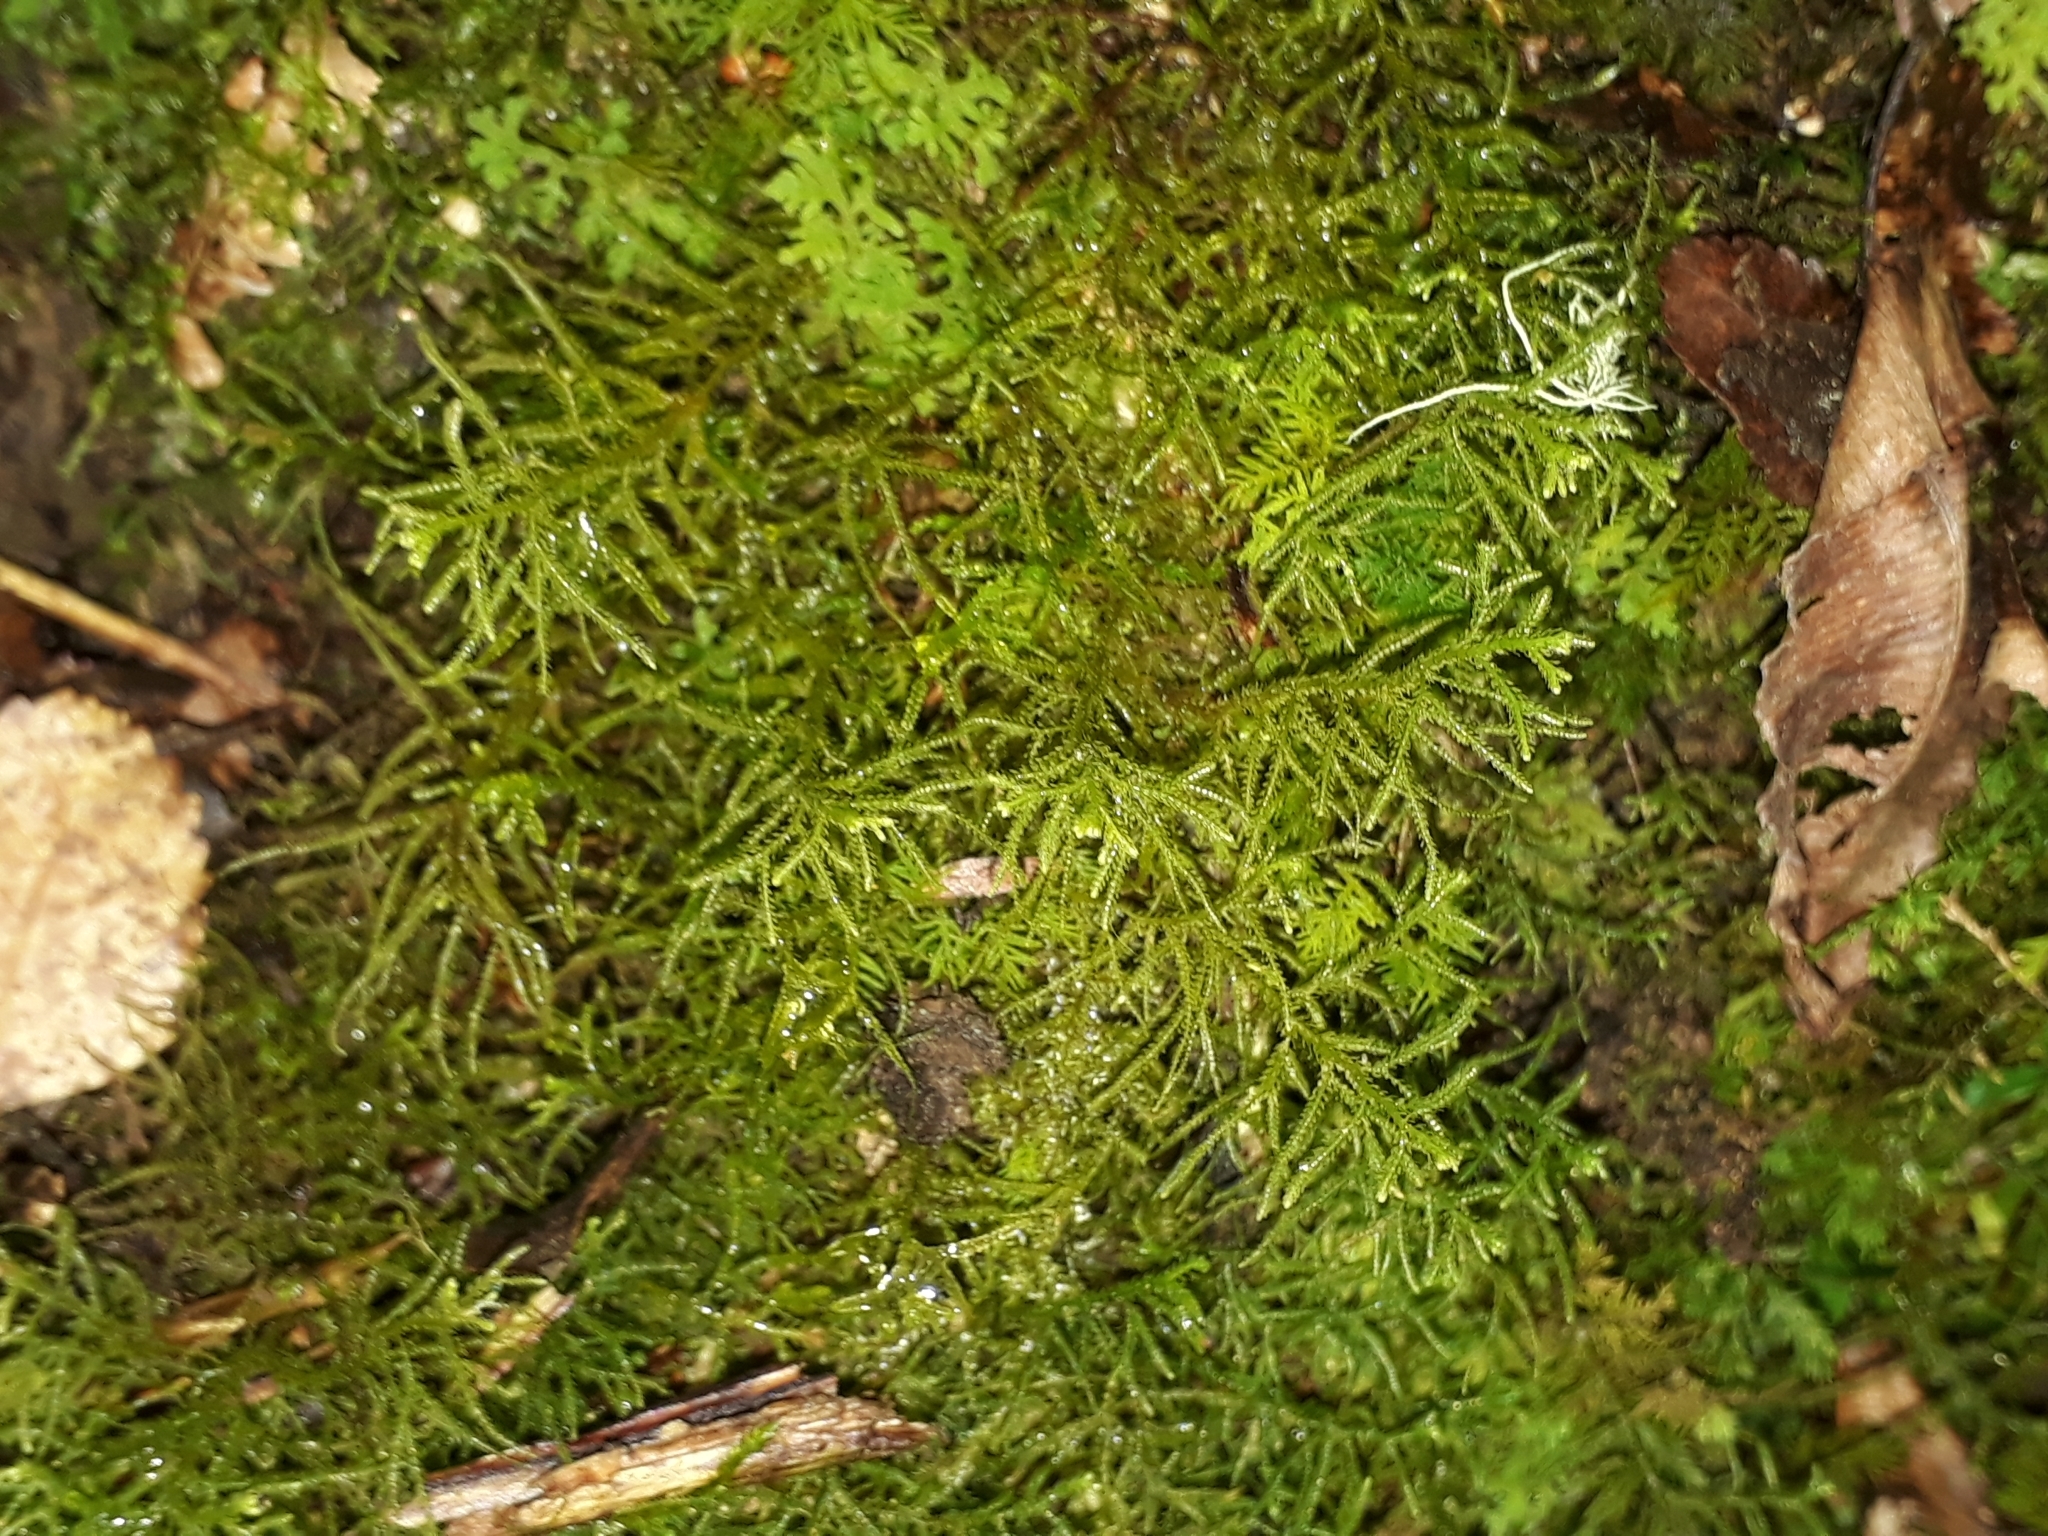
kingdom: Plantae
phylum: Marchantiophyta
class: Jungermanniopsida
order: Jungermanniales
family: Lepidoziaceae
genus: Lepidozia
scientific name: Lepidozia spinosissima
